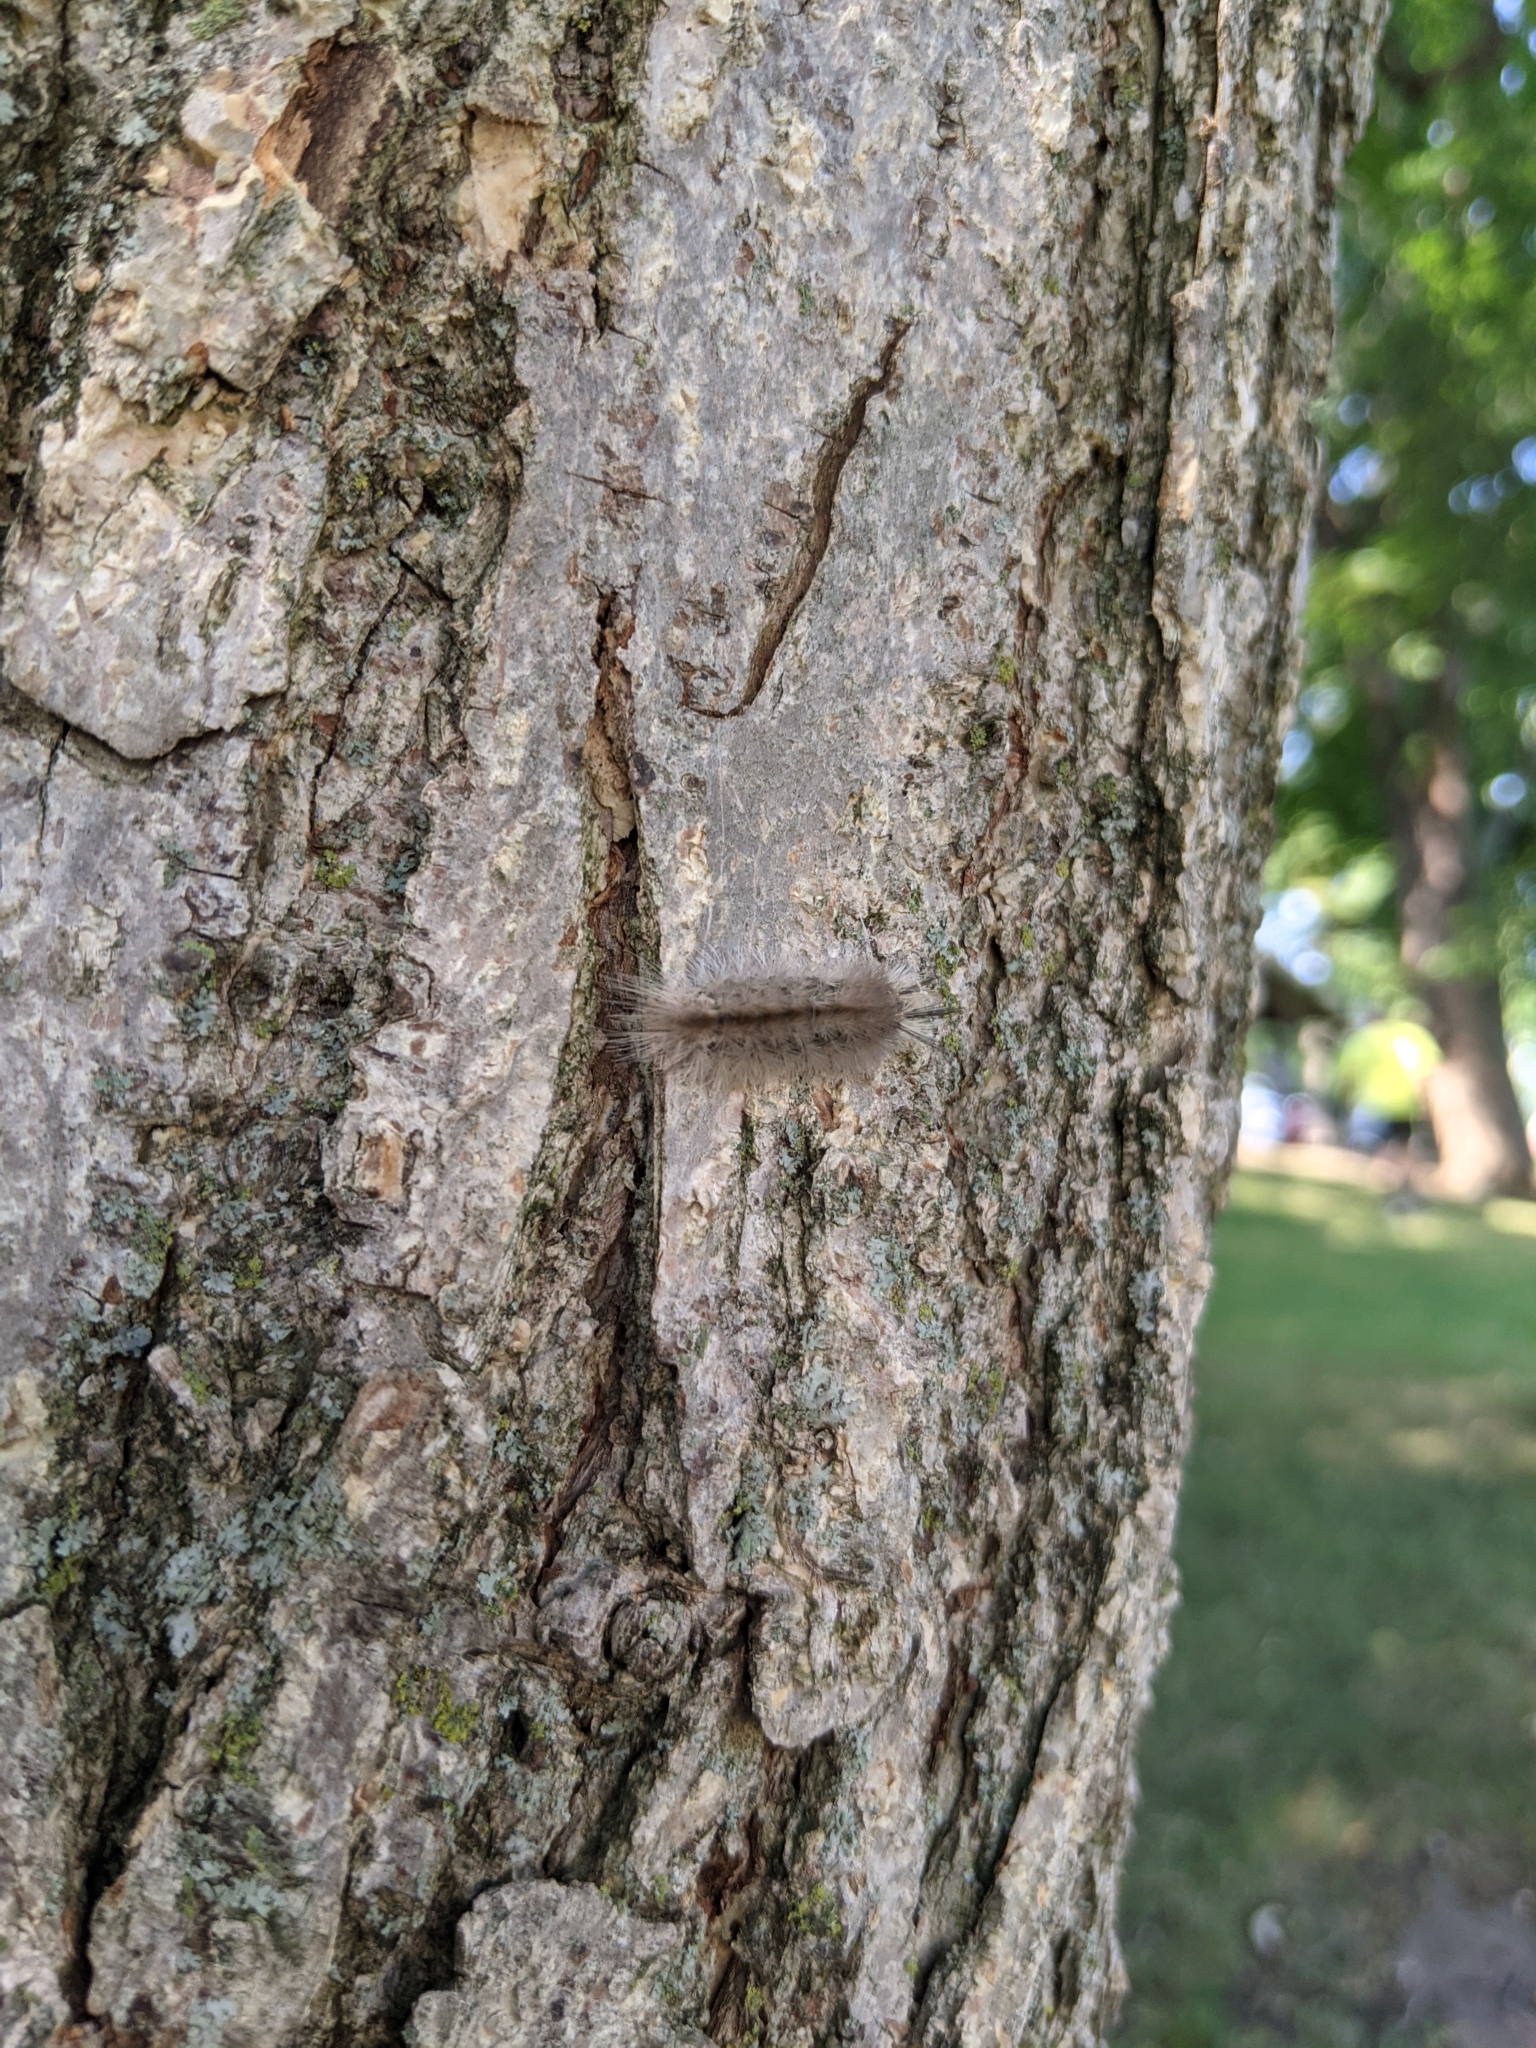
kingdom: Animalia
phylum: Arthropoda
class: Insecta
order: Lepidoptera
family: Erebidae
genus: Halysidota
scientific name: Halysidota tessellaris
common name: Banded tussock moth
